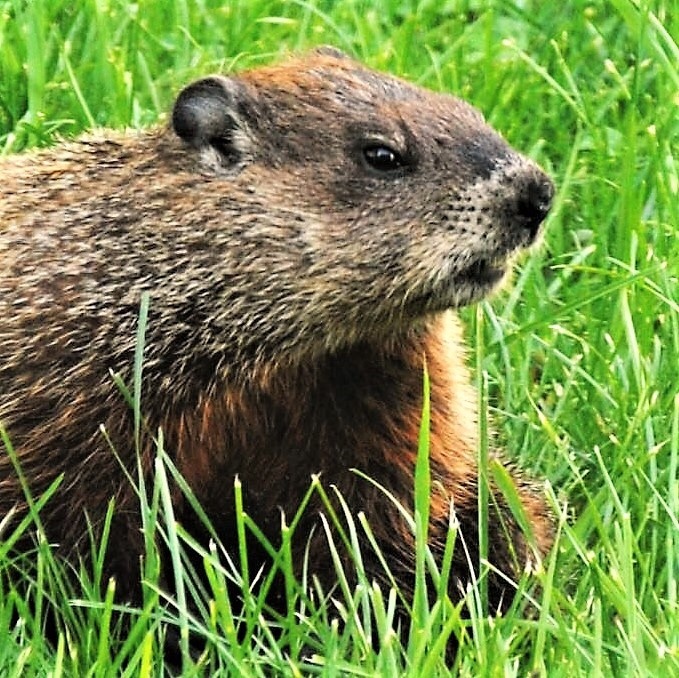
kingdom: Animalia
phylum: Chordata
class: Mammalia
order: Rodentia
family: Sciuridae
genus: Marmota
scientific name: Marmota monax
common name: Groundhog
